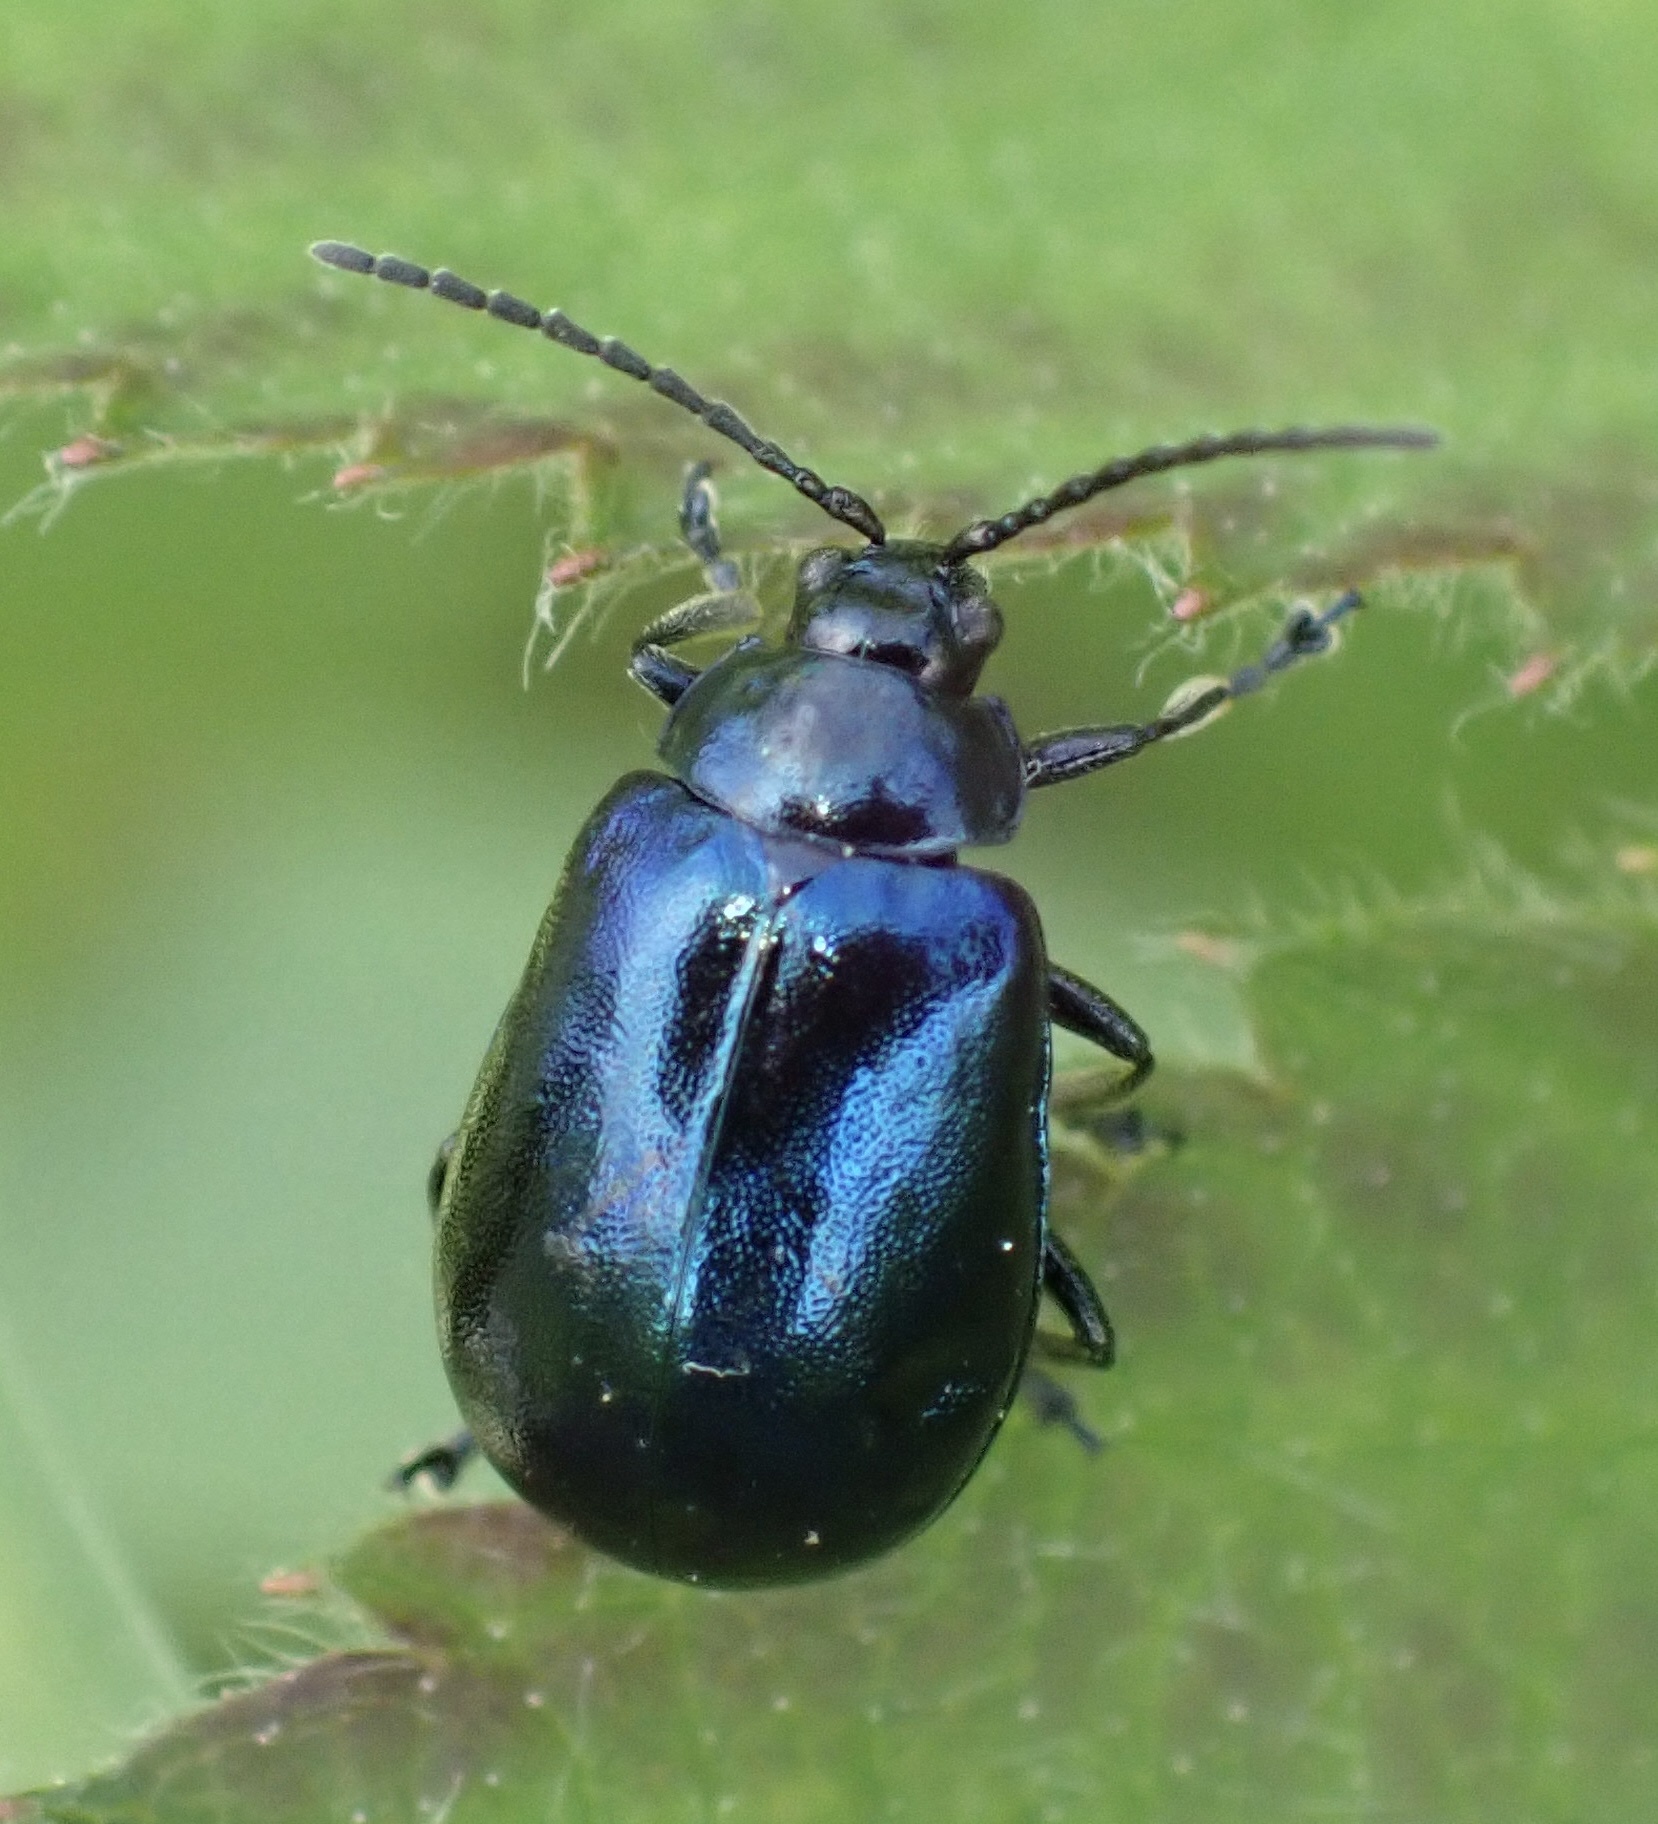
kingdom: Animalia
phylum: Arthropoda
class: Insecta
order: Coleoptera
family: Chrysomelidae
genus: Agelastica
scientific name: Agelastica alni
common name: Alder leaf beetle
